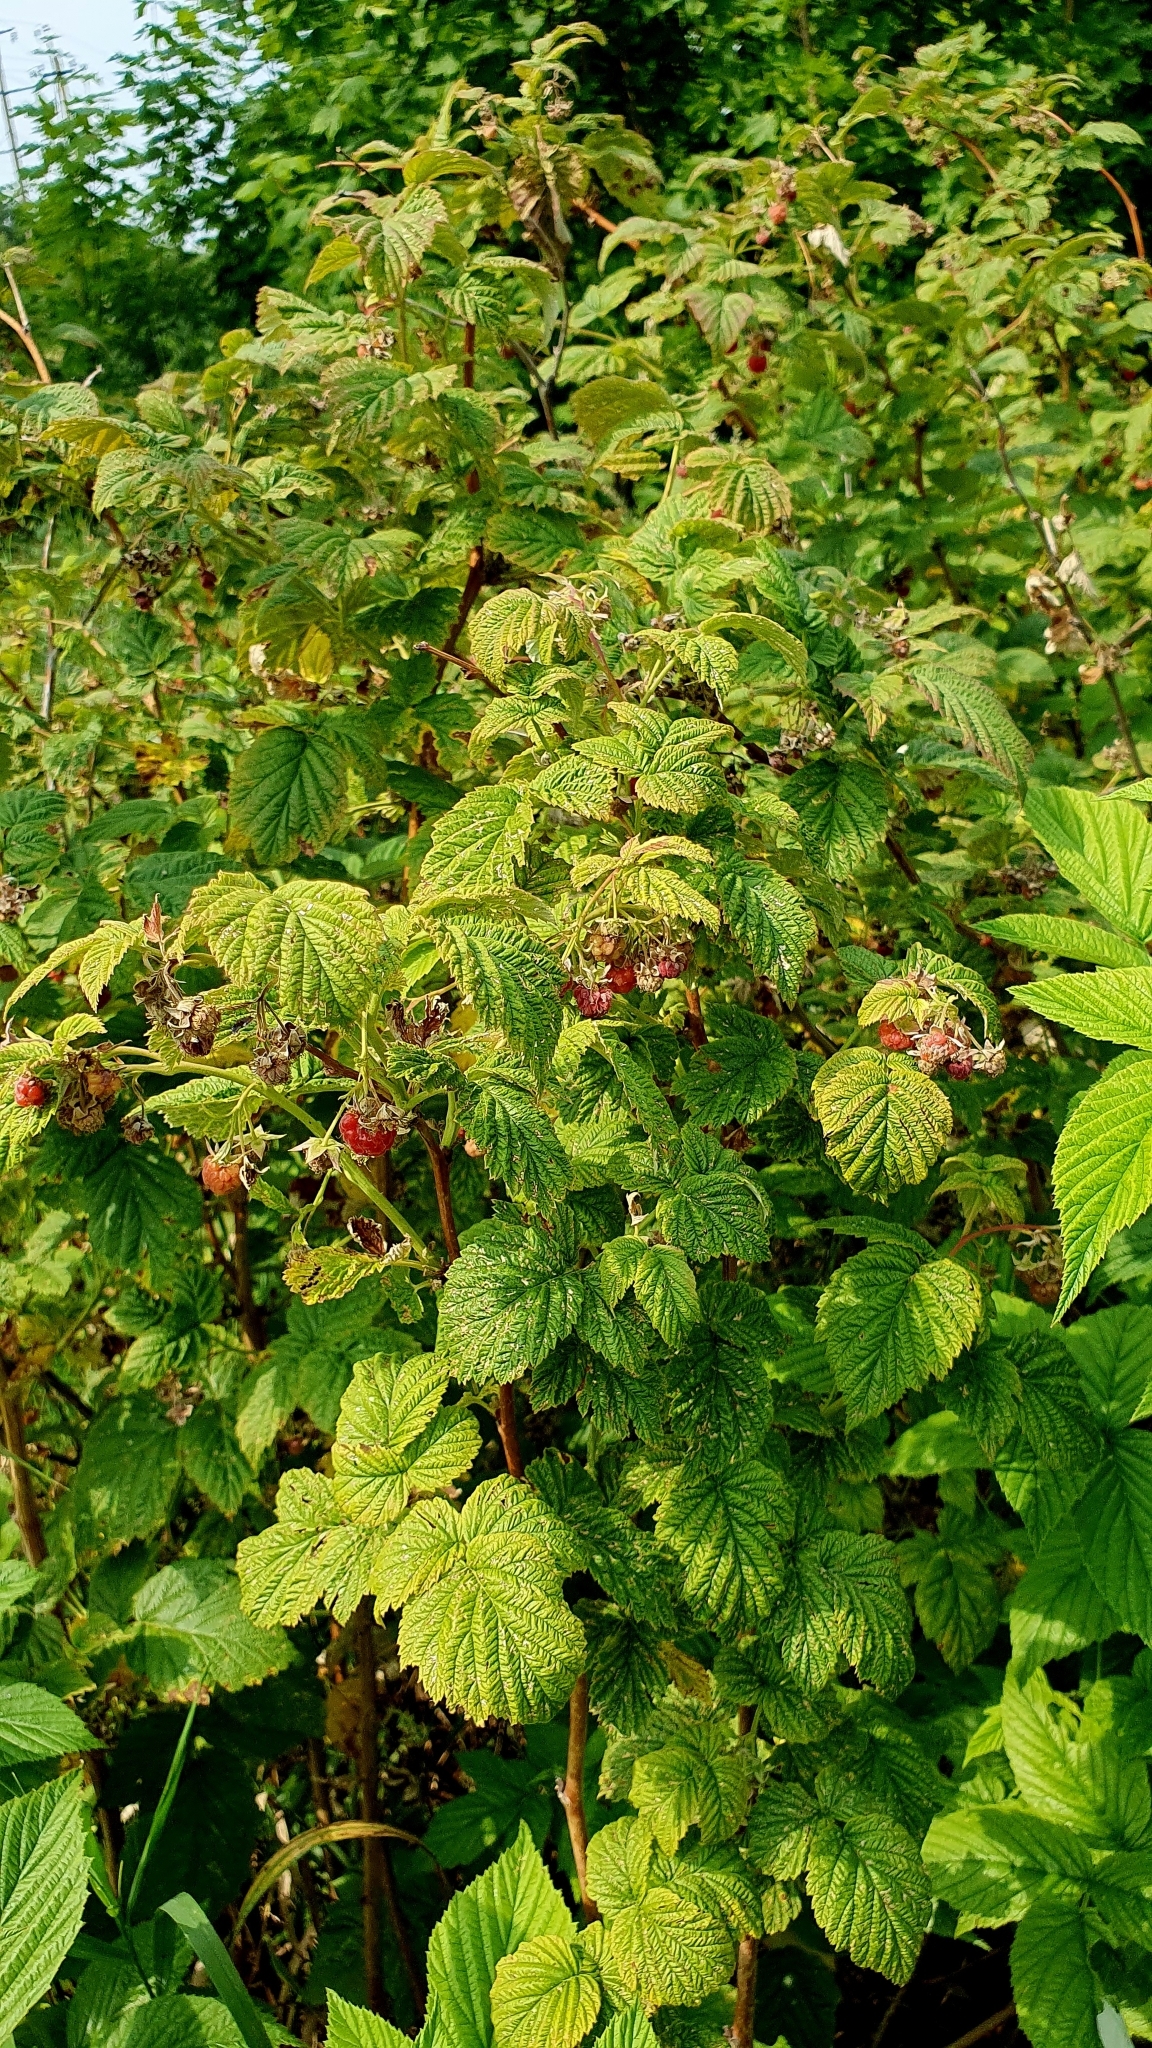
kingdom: Plantae
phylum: Tracheophyta
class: Magnoliopsida
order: Rosales
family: Rosaceae
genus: Rubus
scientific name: Rubus idaeus
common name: Raspberry
